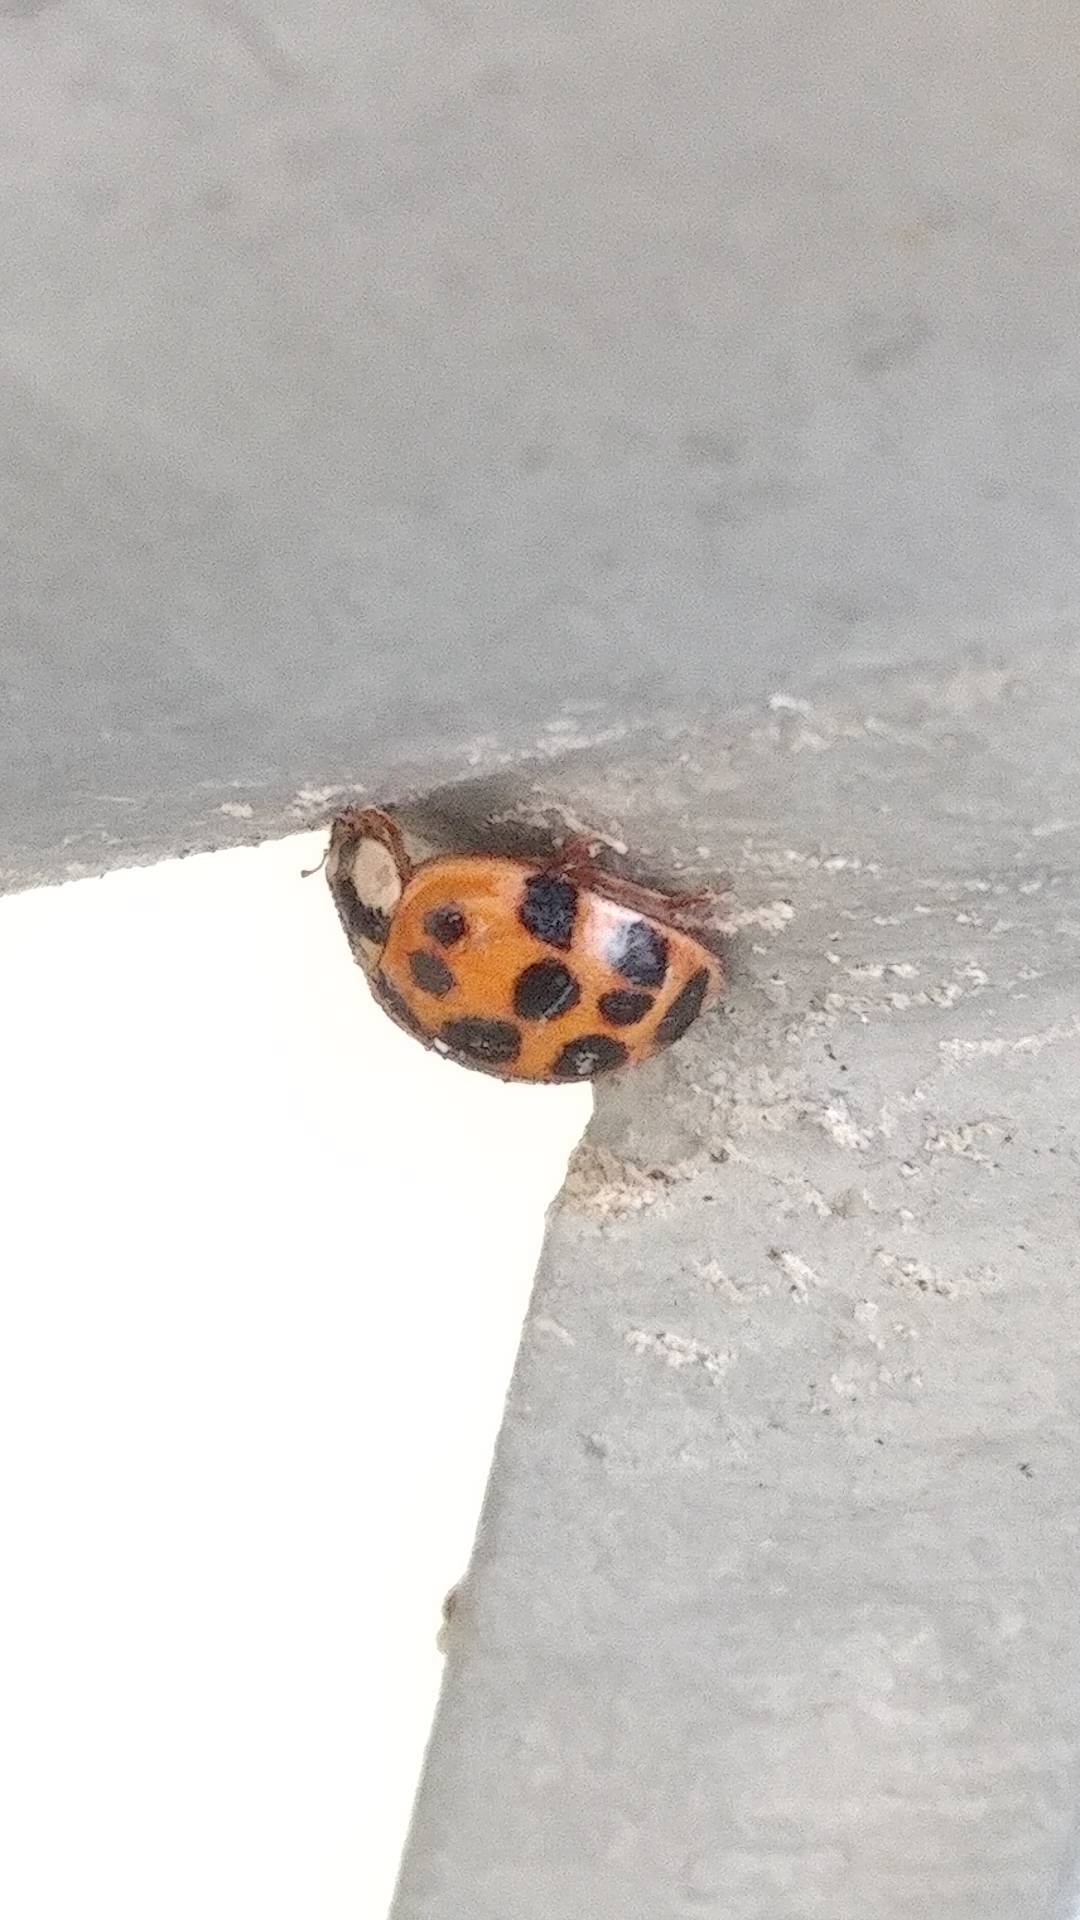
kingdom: Animalia
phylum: Arthropoda
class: Insecta
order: Coleoptera
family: Coccinellidae
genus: Harmonia
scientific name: Harmonia axyridis
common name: Harlequin ladybird
